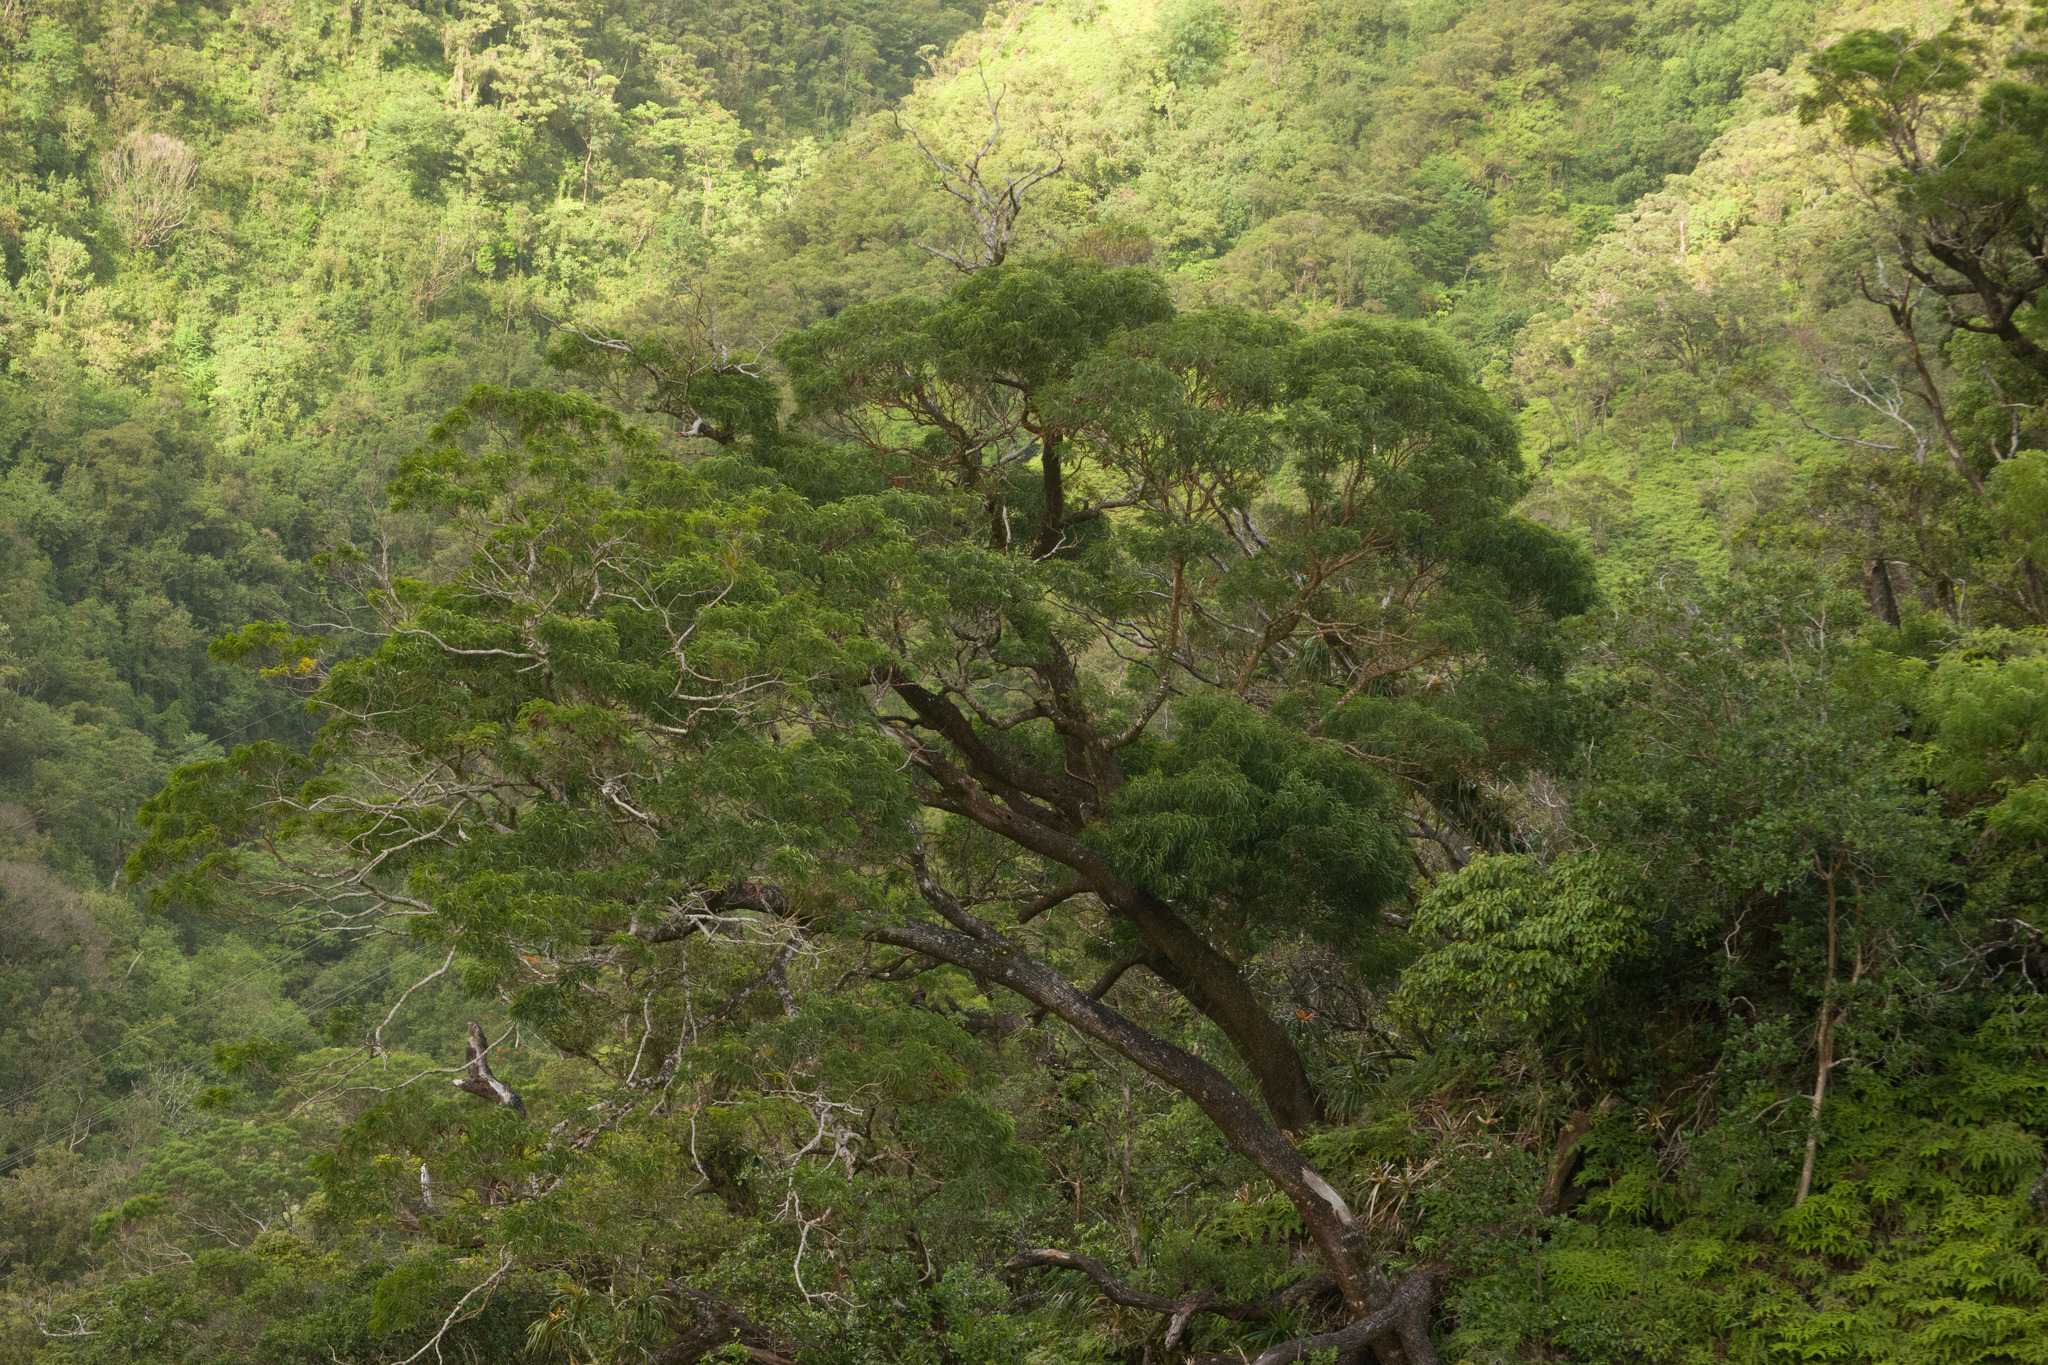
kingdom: Plantae
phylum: Tracheophyta
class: Magnoliopsida
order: Fabales
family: Fabaceae
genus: Acacia
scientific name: Acacia koa
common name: Gray koa
